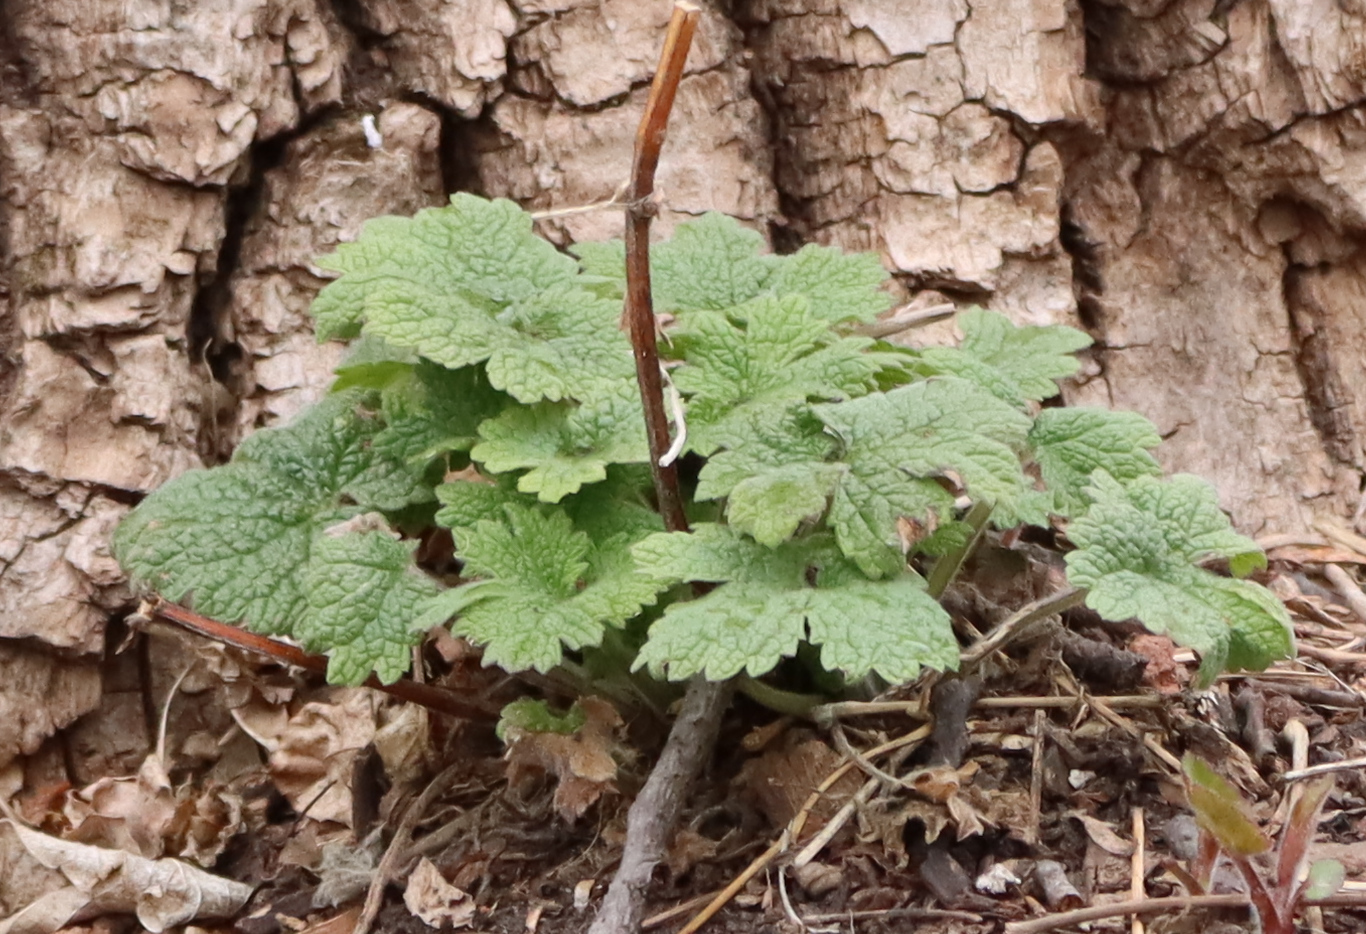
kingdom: Plantae
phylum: Tracheophyta
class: Magnoliopsida
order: Lamiales
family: Lamiaceae
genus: Leonurus
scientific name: Leonurus cardiaca
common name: Motherwort
